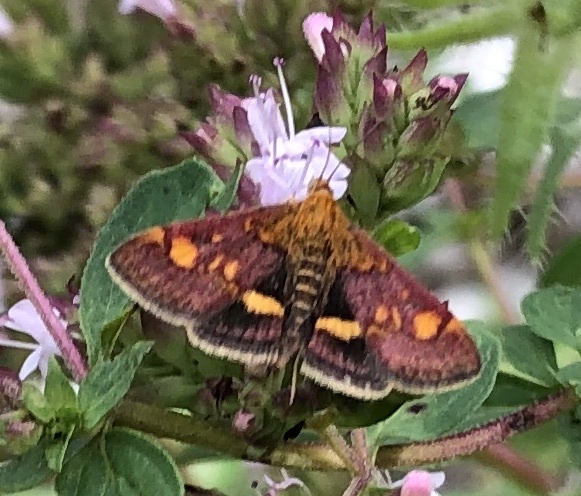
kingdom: Animalia
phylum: Arthropoda
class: Insecta
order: Lepidoptera
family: Crambidae
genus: Pyrausta
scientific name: Pyrausta aurata
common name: Small purple & gold
